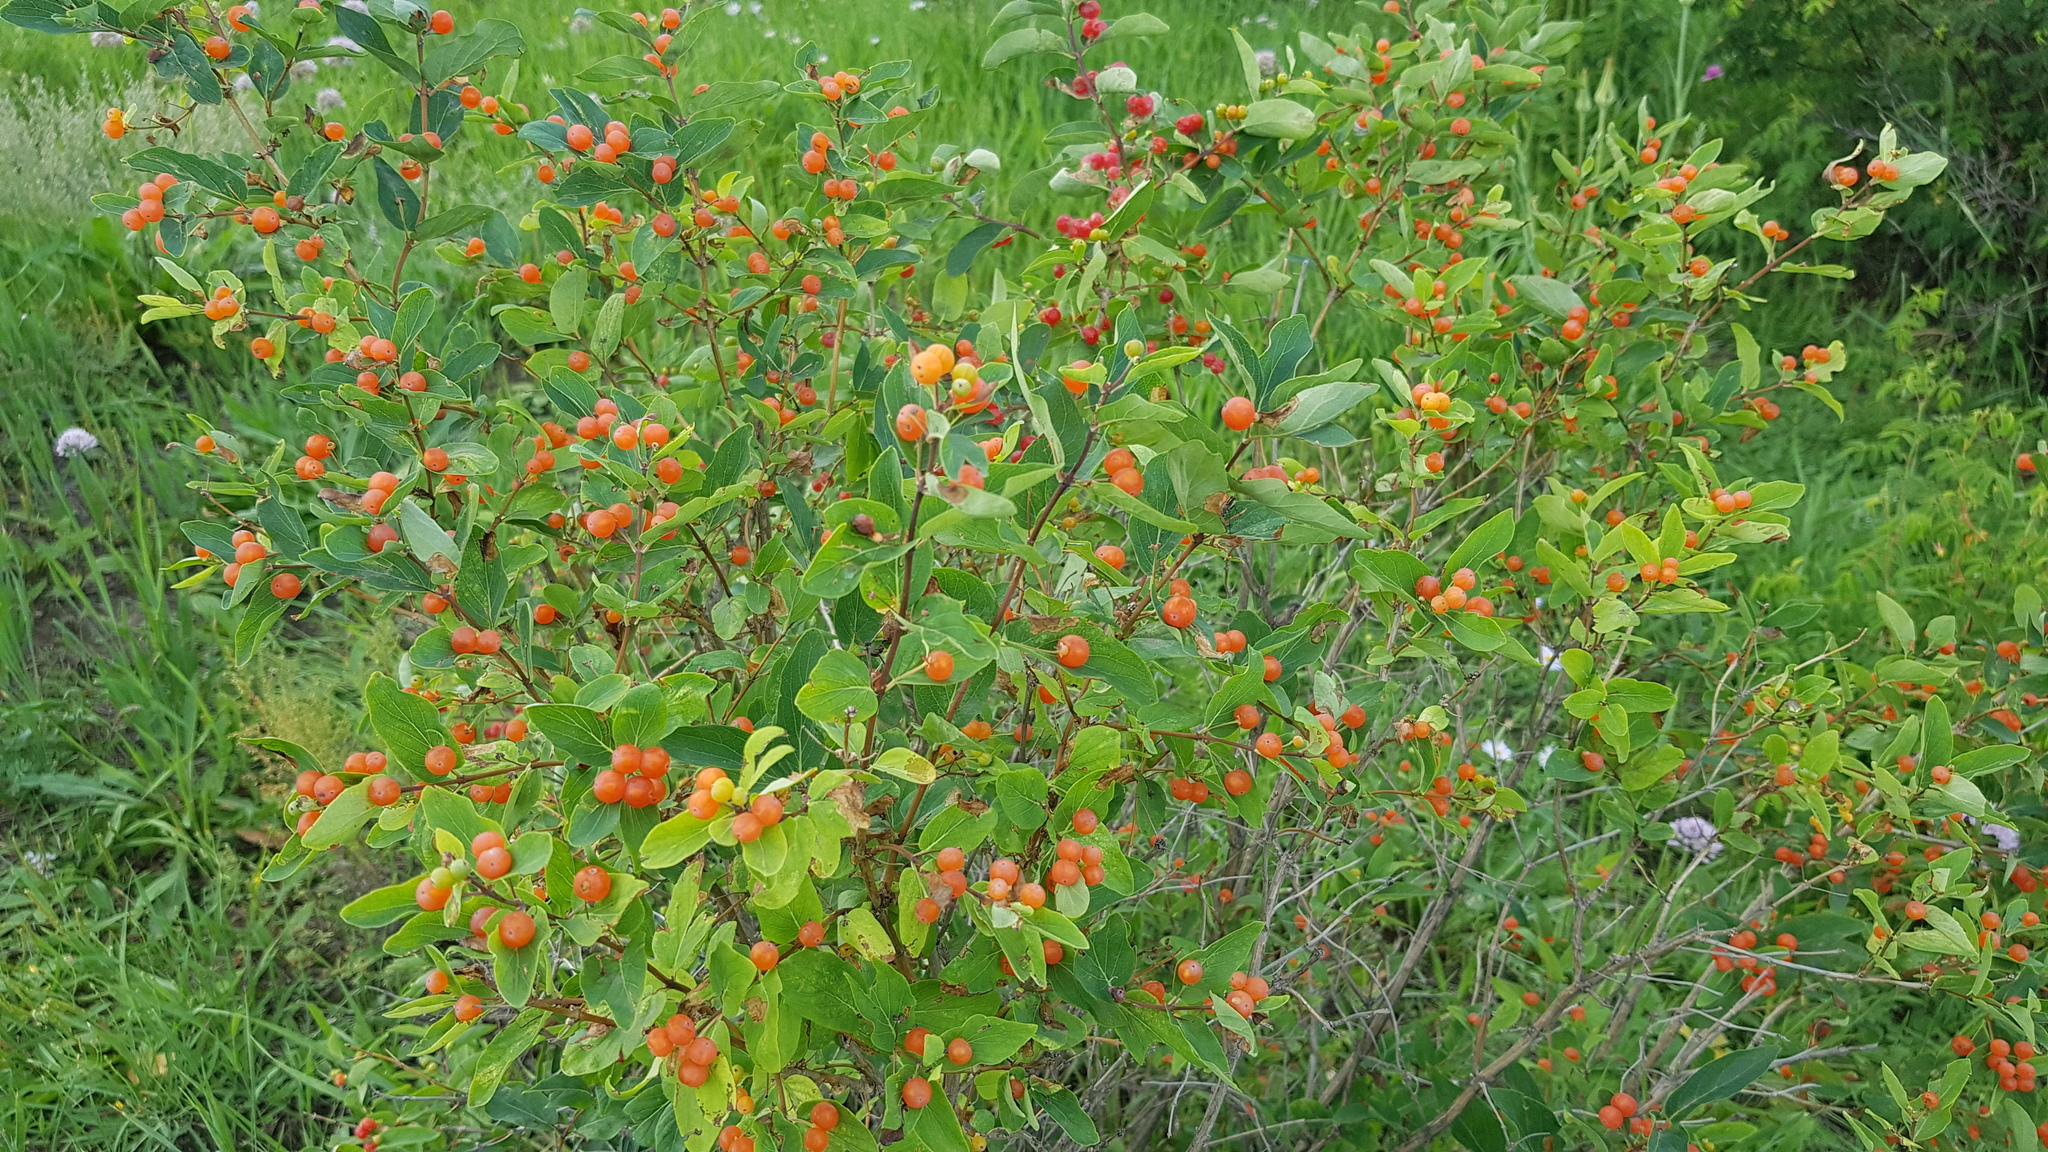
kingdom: Plantae
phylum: Tracheophyta
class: Magnoliopsida
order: Dipsacales
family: Caprifoliaceae
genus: Lonicera
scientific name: Lonicera tatarica
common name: Tatarian honeysuckle
